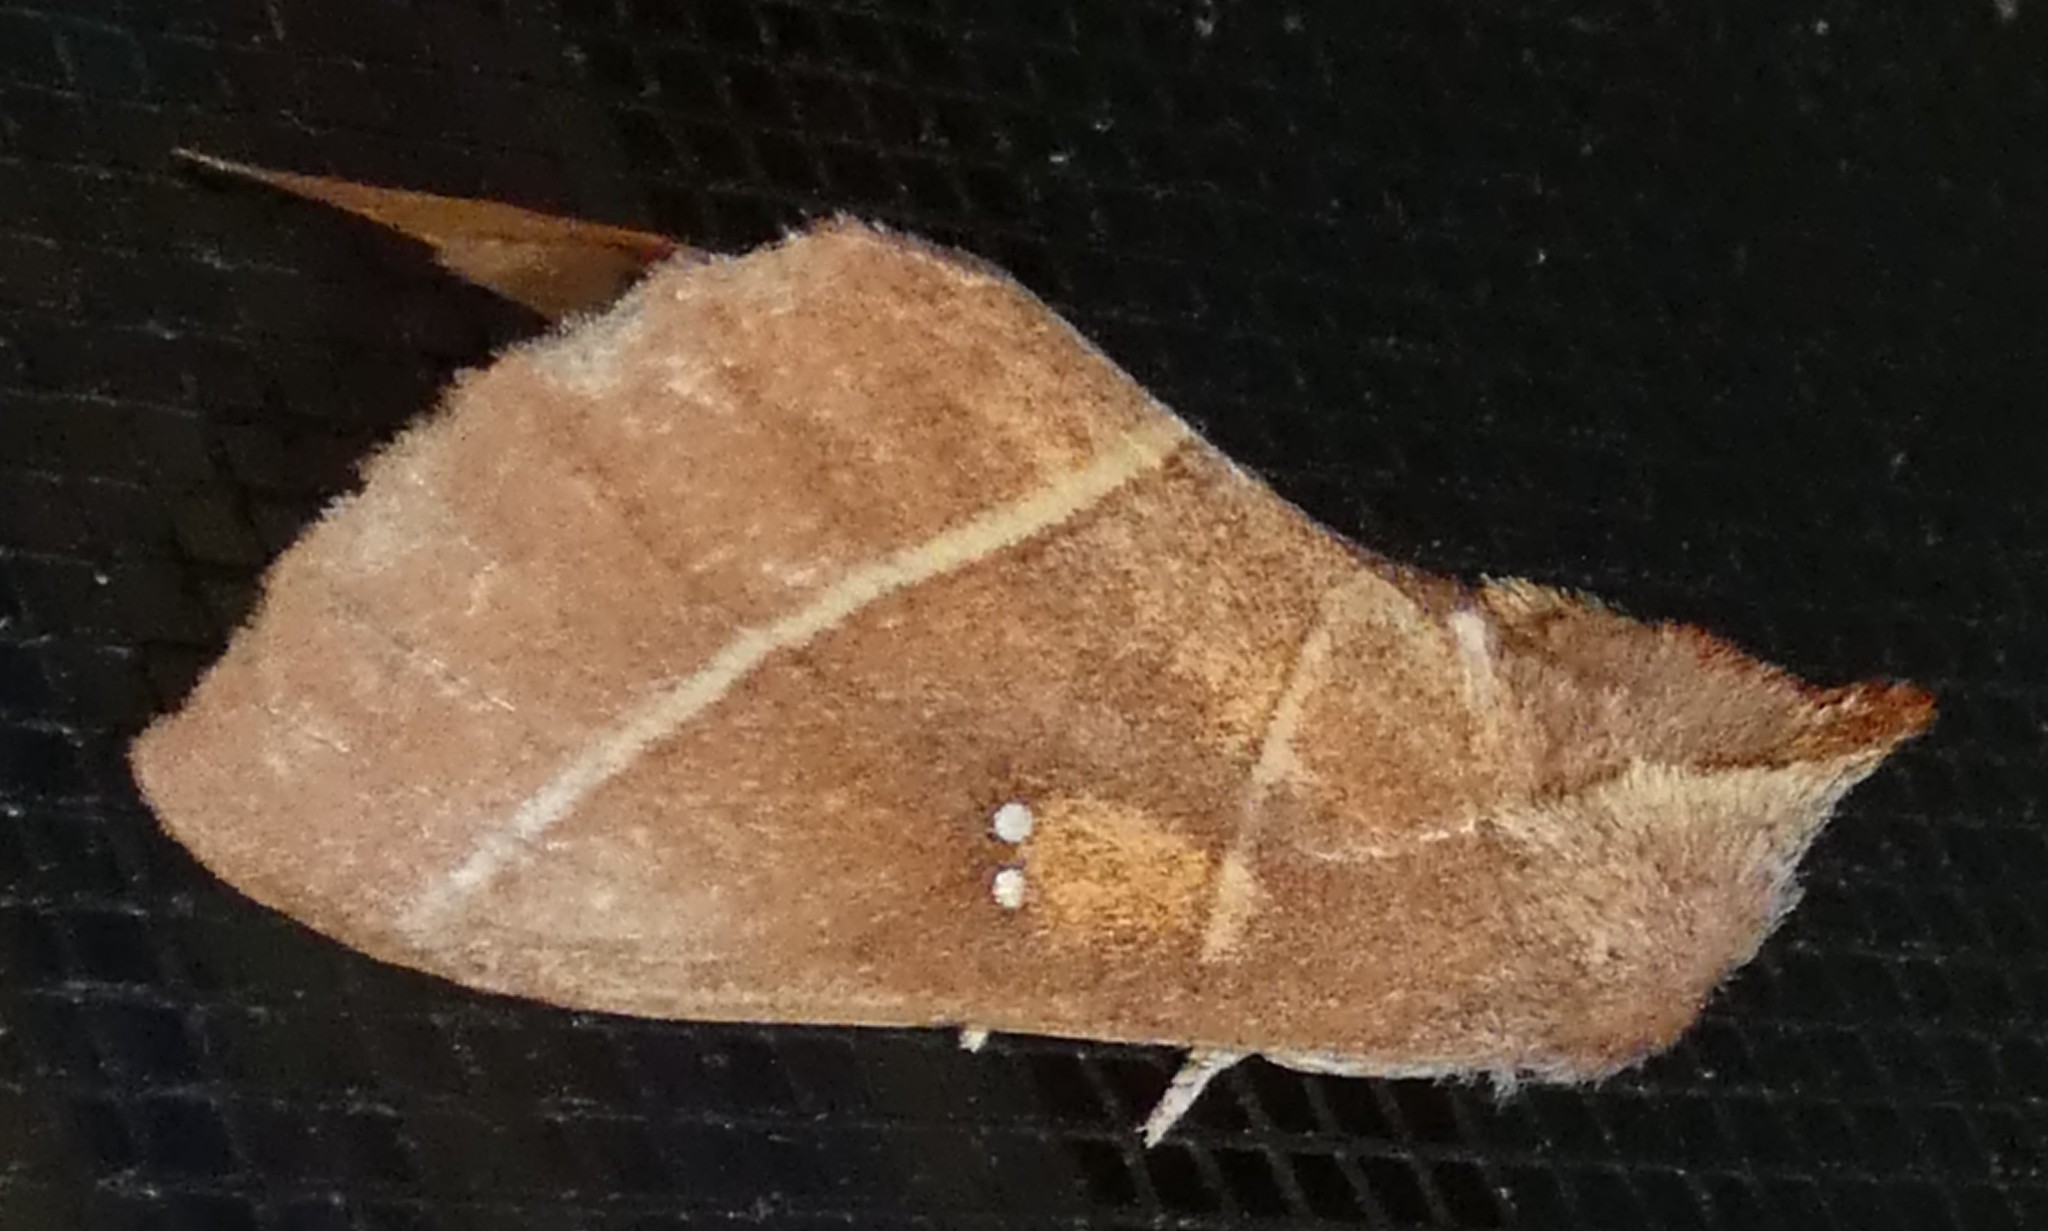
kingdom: Animalia
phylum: Arthropoda
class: Insecta
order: Lepidoptera
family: Notodontidae
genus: Nadata
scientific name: Nadata gibbosa
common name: White-dotted prominent
